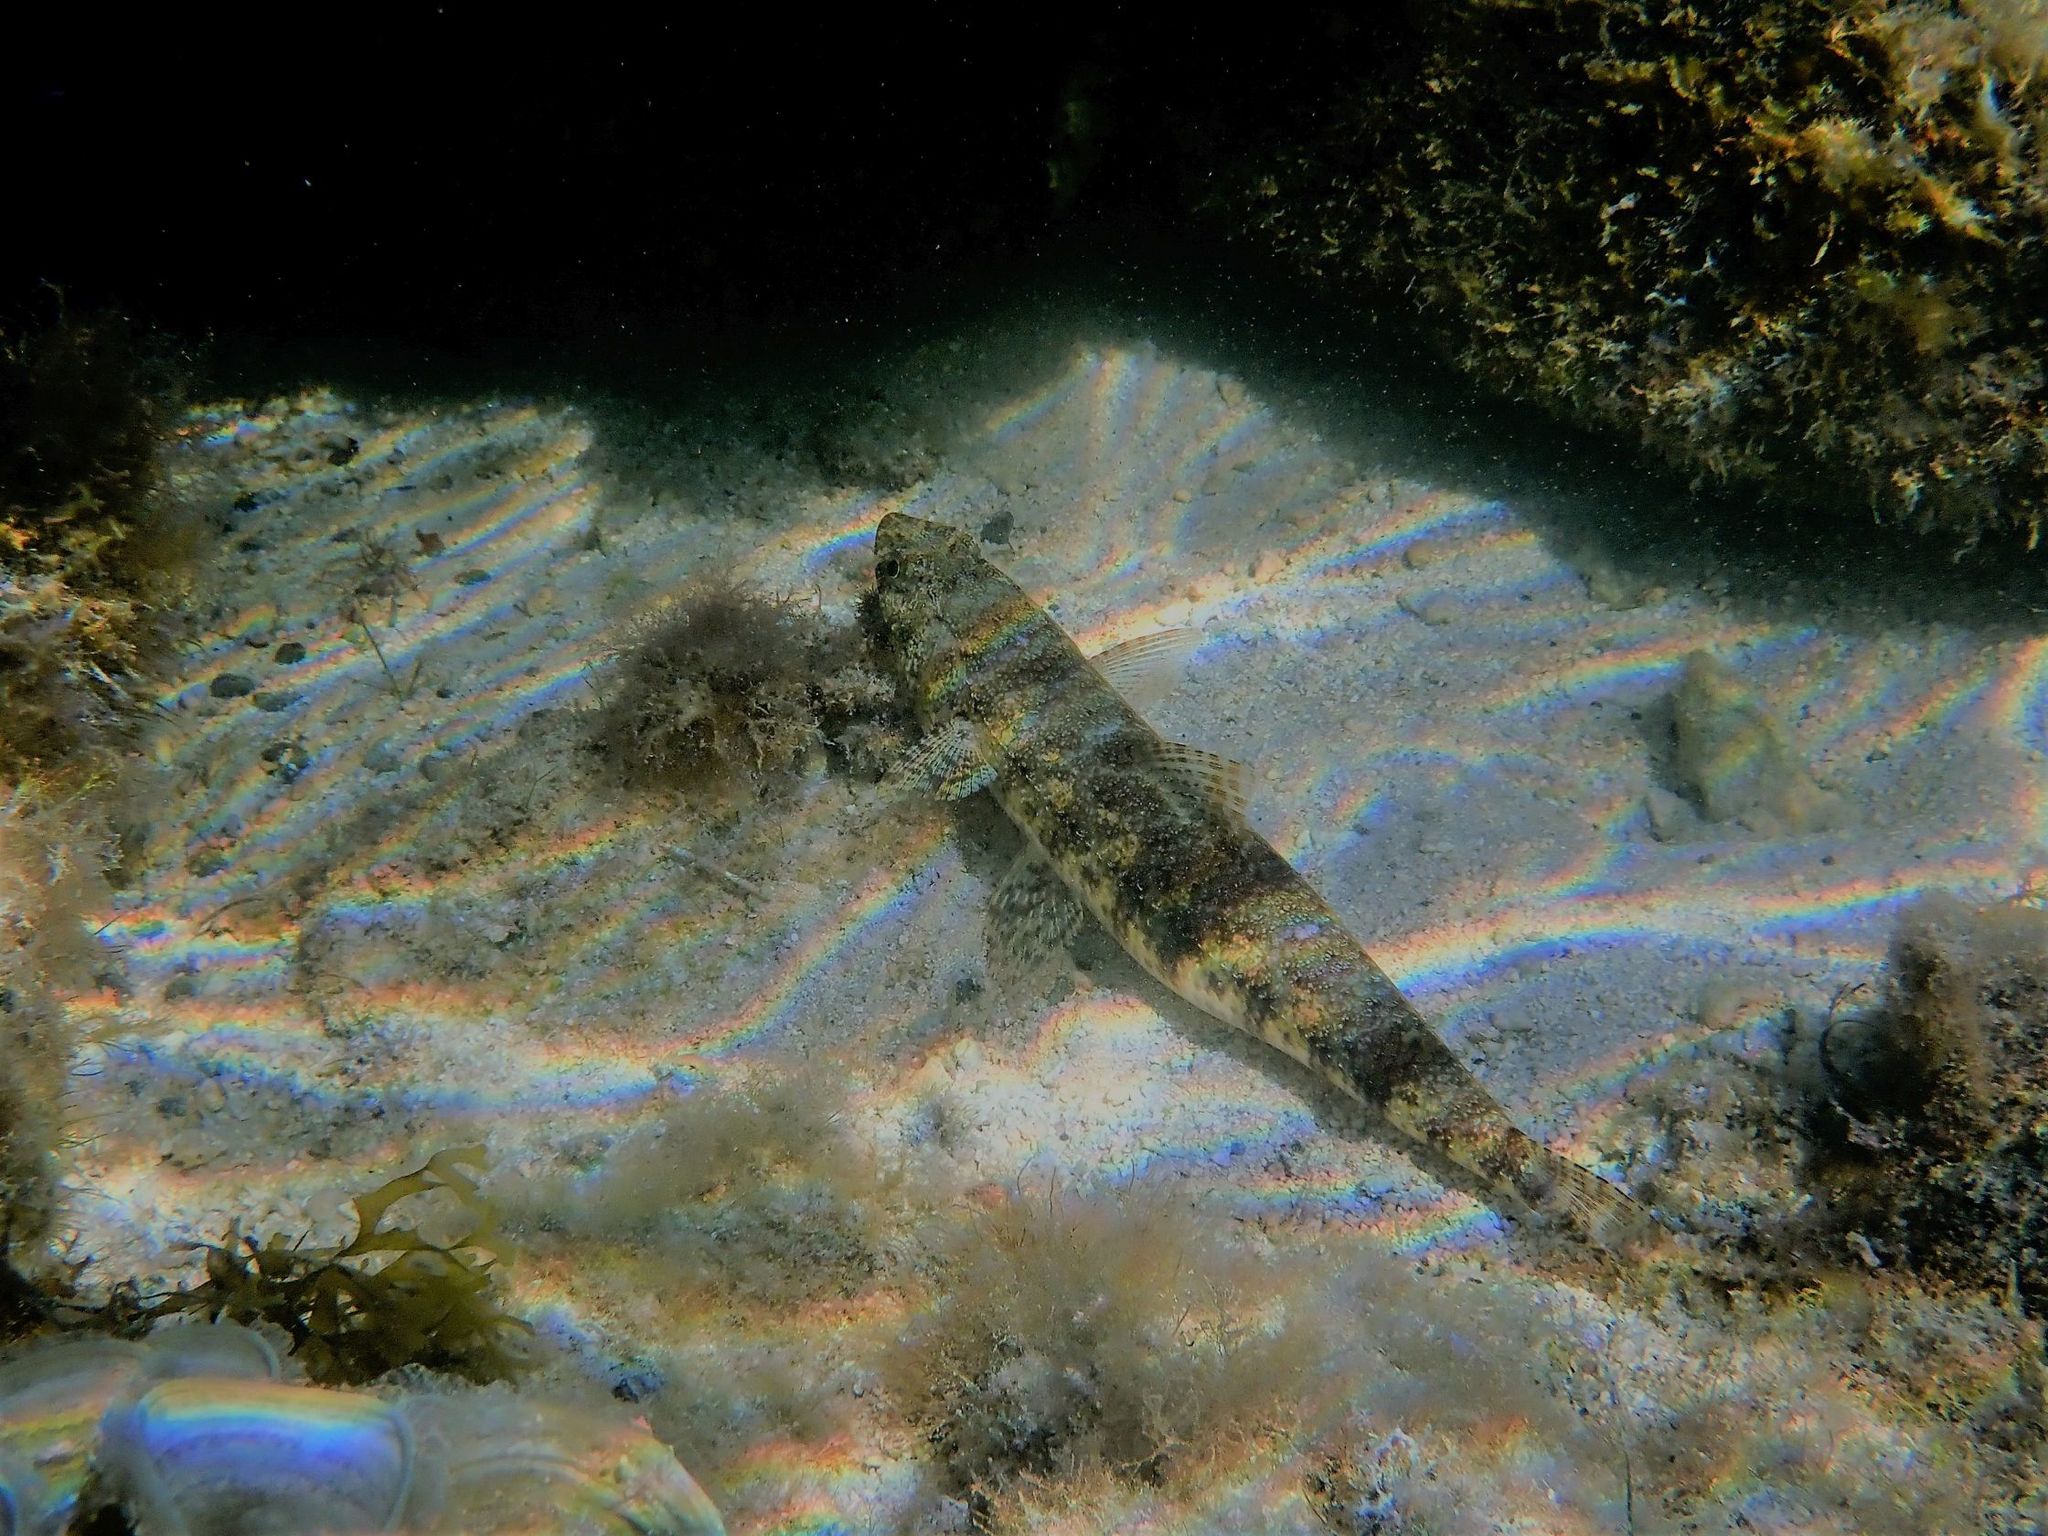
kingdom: Animalia
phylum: Chordata
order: Aulopiformes
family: Synodontidae
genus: Saurida
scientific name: Saurida nebulosa
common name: Nebulous lizardfish
